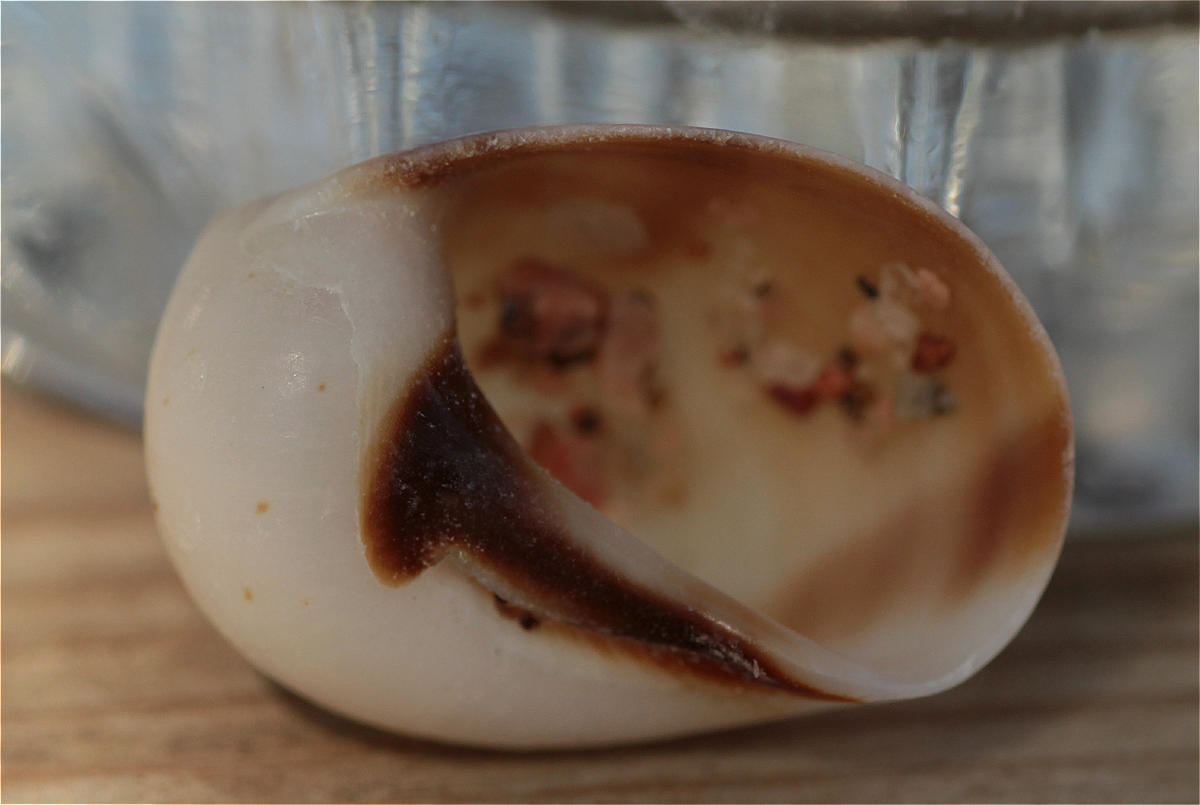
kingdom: Animalia
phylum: Mollusca
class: Gastropoda
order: Littorinimorpha
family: Naticidae
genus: Mammilla
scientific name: Mammilla melanostoma
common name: Black-mouth moonsnail
